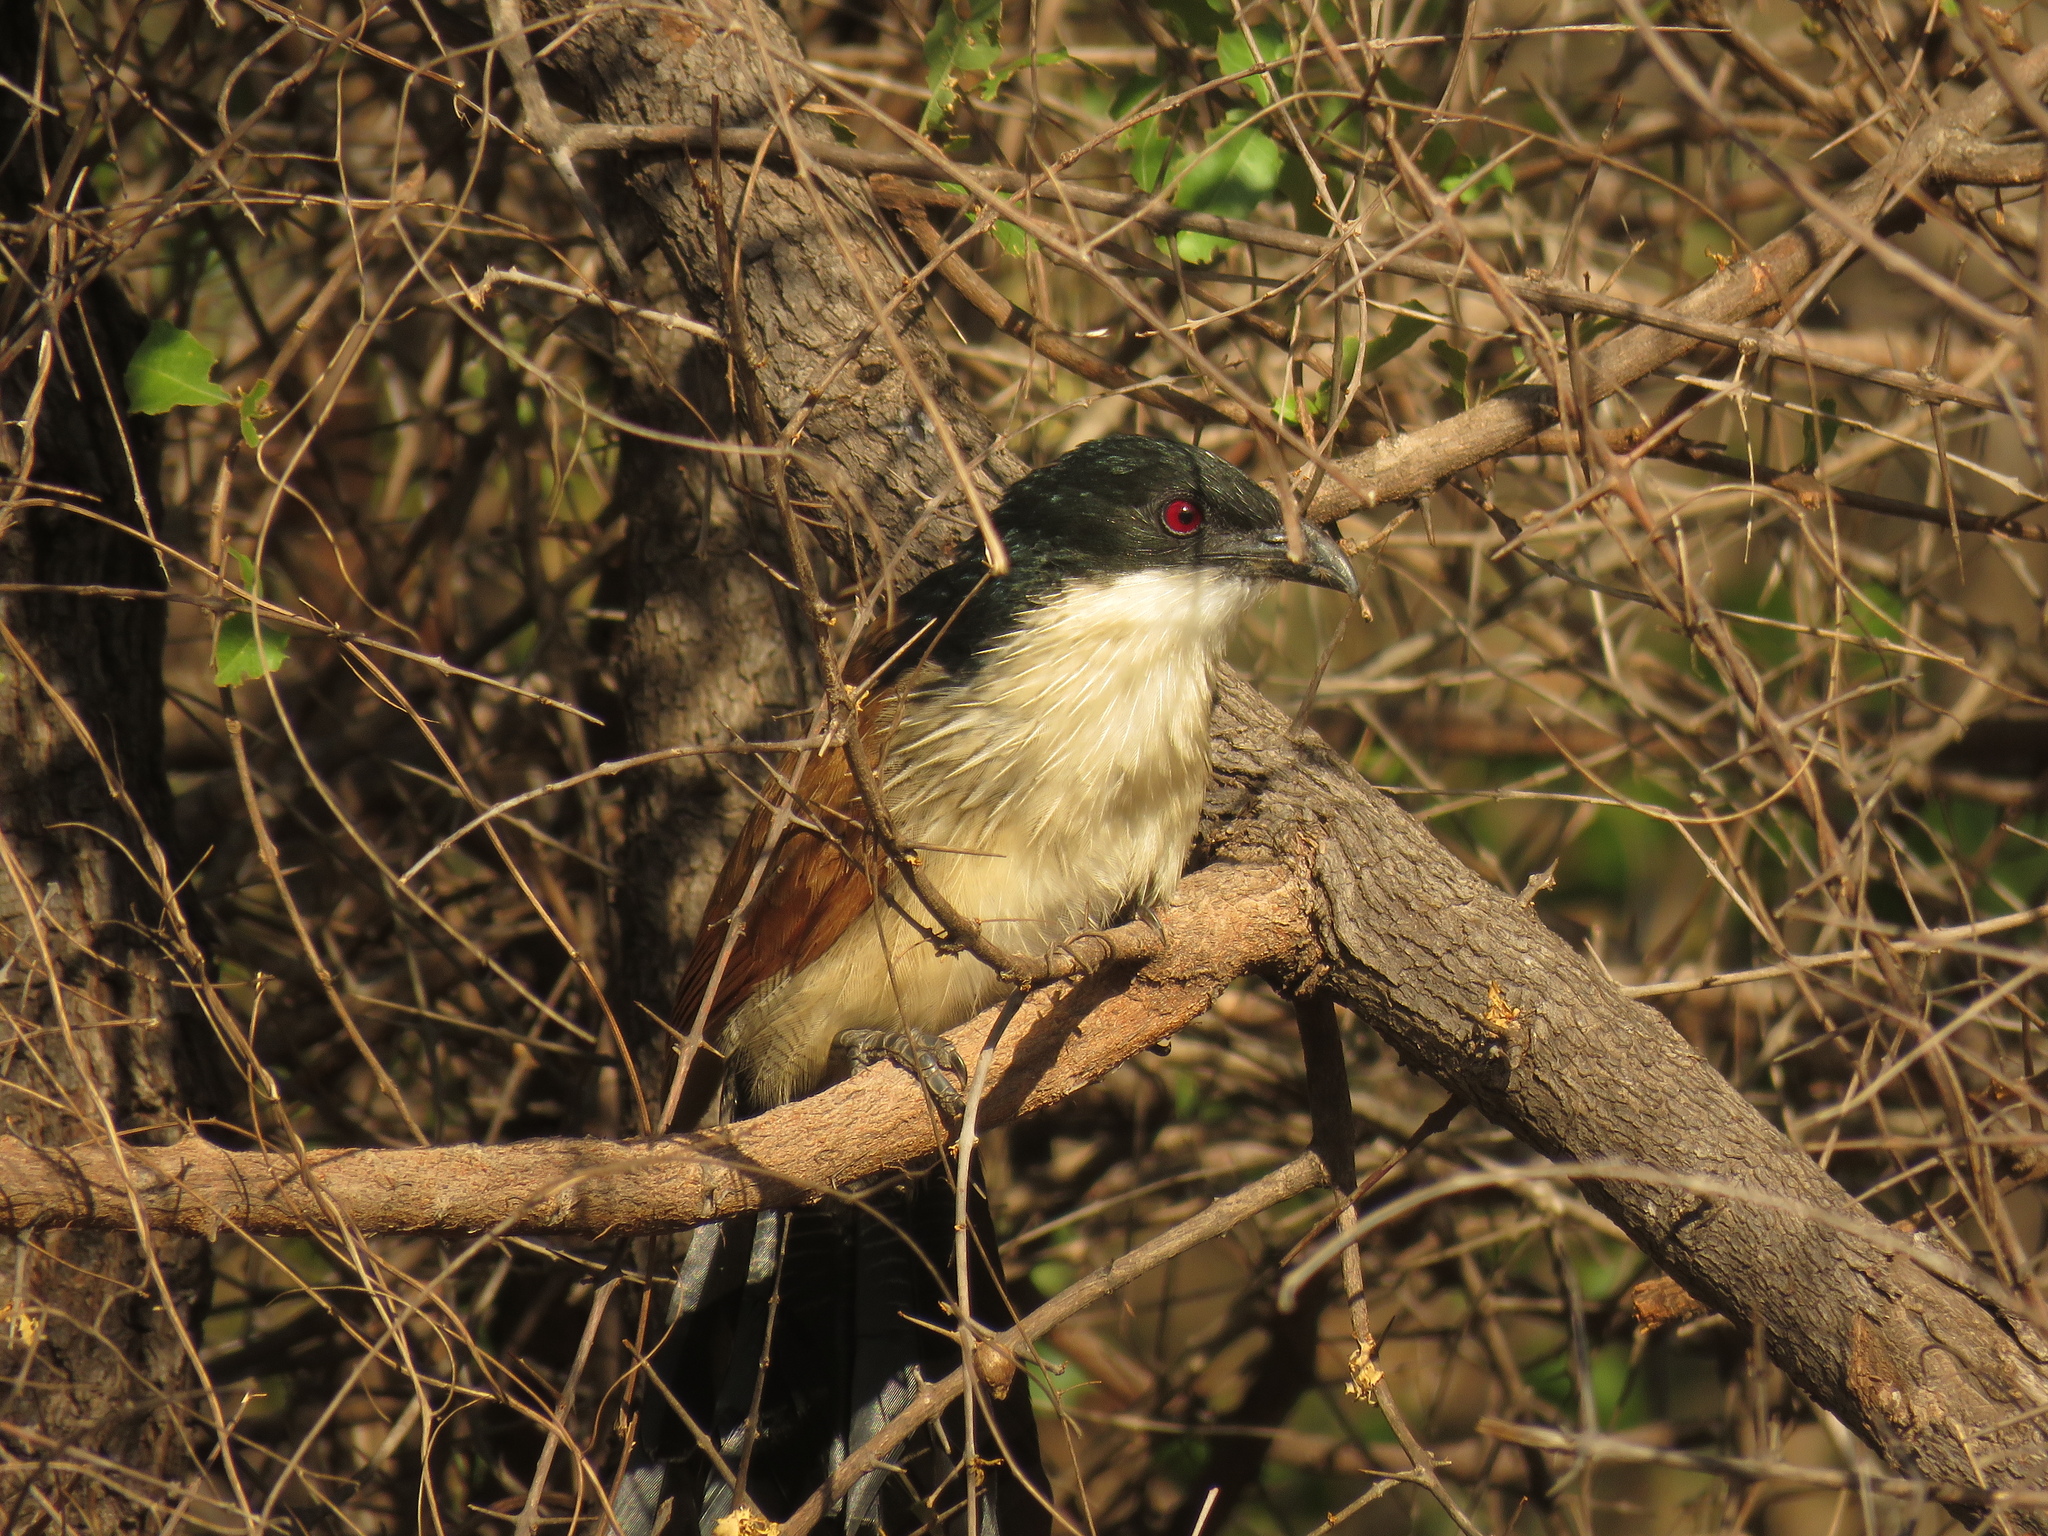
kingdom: Animalia
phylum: Chordata
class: Aves
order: Cuculiformes
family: Cuculidae
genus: Centropus
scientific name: Centropus superciliosus
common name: White-browed coucal
